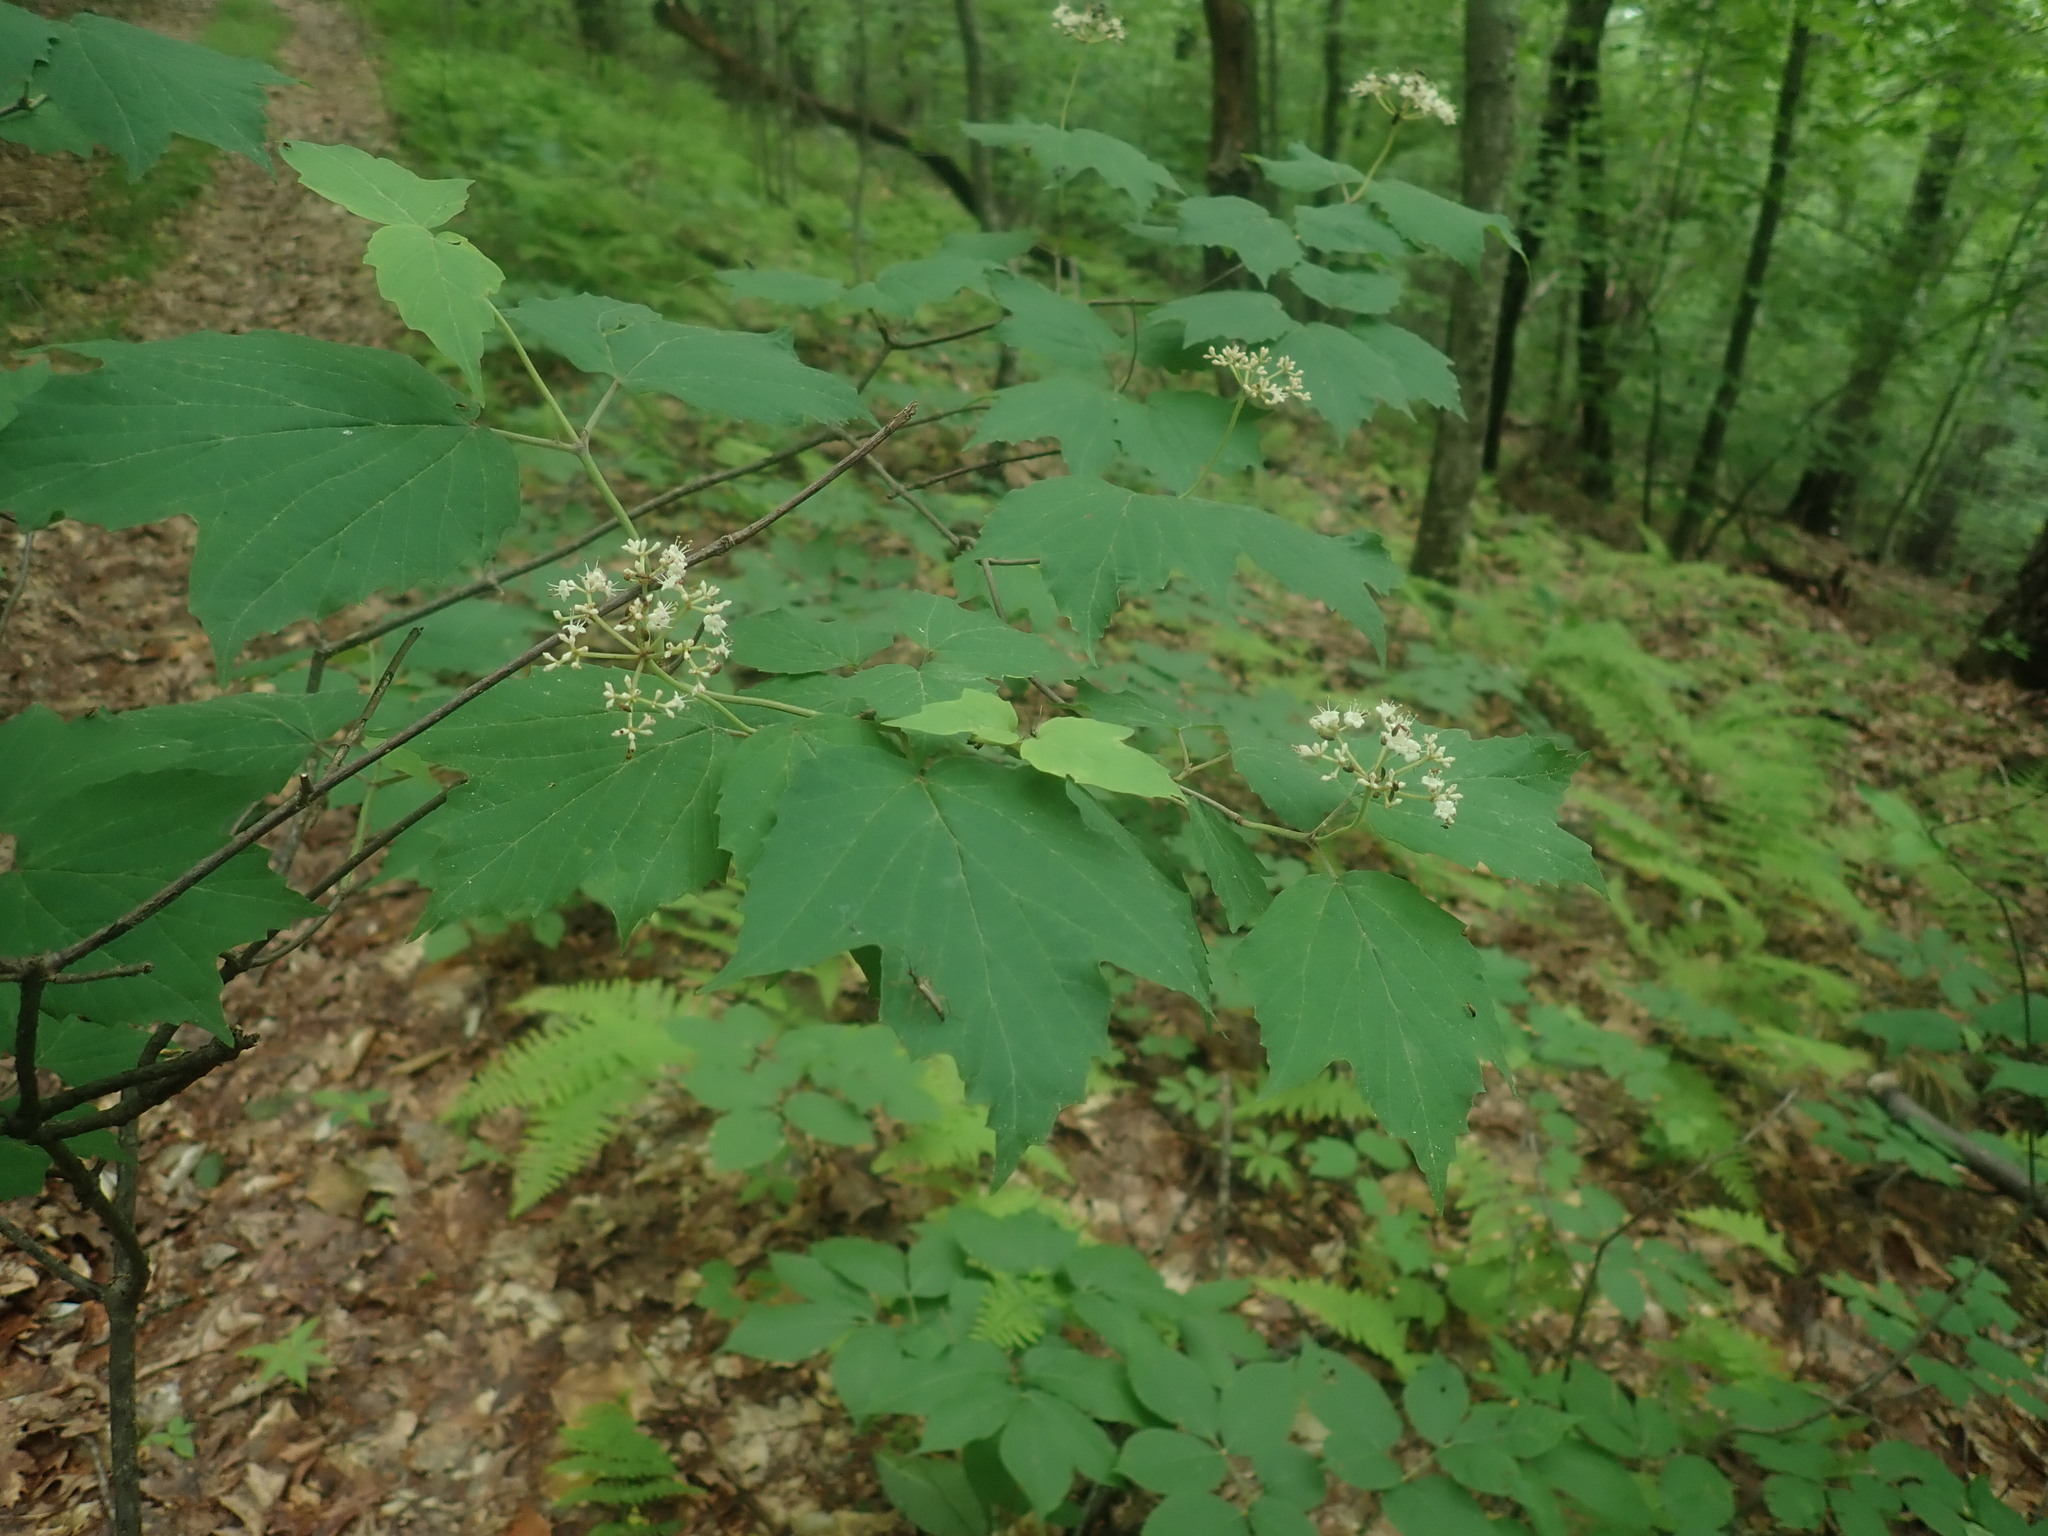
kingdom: Plantae
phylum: Tracheophyta
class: Magnoliopsida
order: Dipsacales
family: Viburnaceae
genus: Viburnum
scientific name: Viburnum acerifolium
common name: Dockmackie
